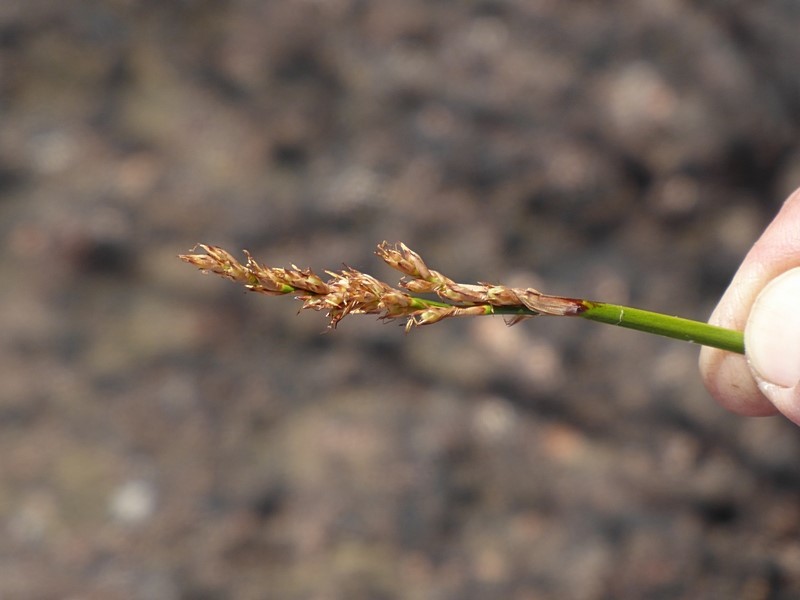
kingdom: Plantae
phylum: Tracheophyta
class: Liliopsida
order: Poales
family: Cyperaceae
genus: Lepidosperma
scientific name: Lepidosperma laterale
